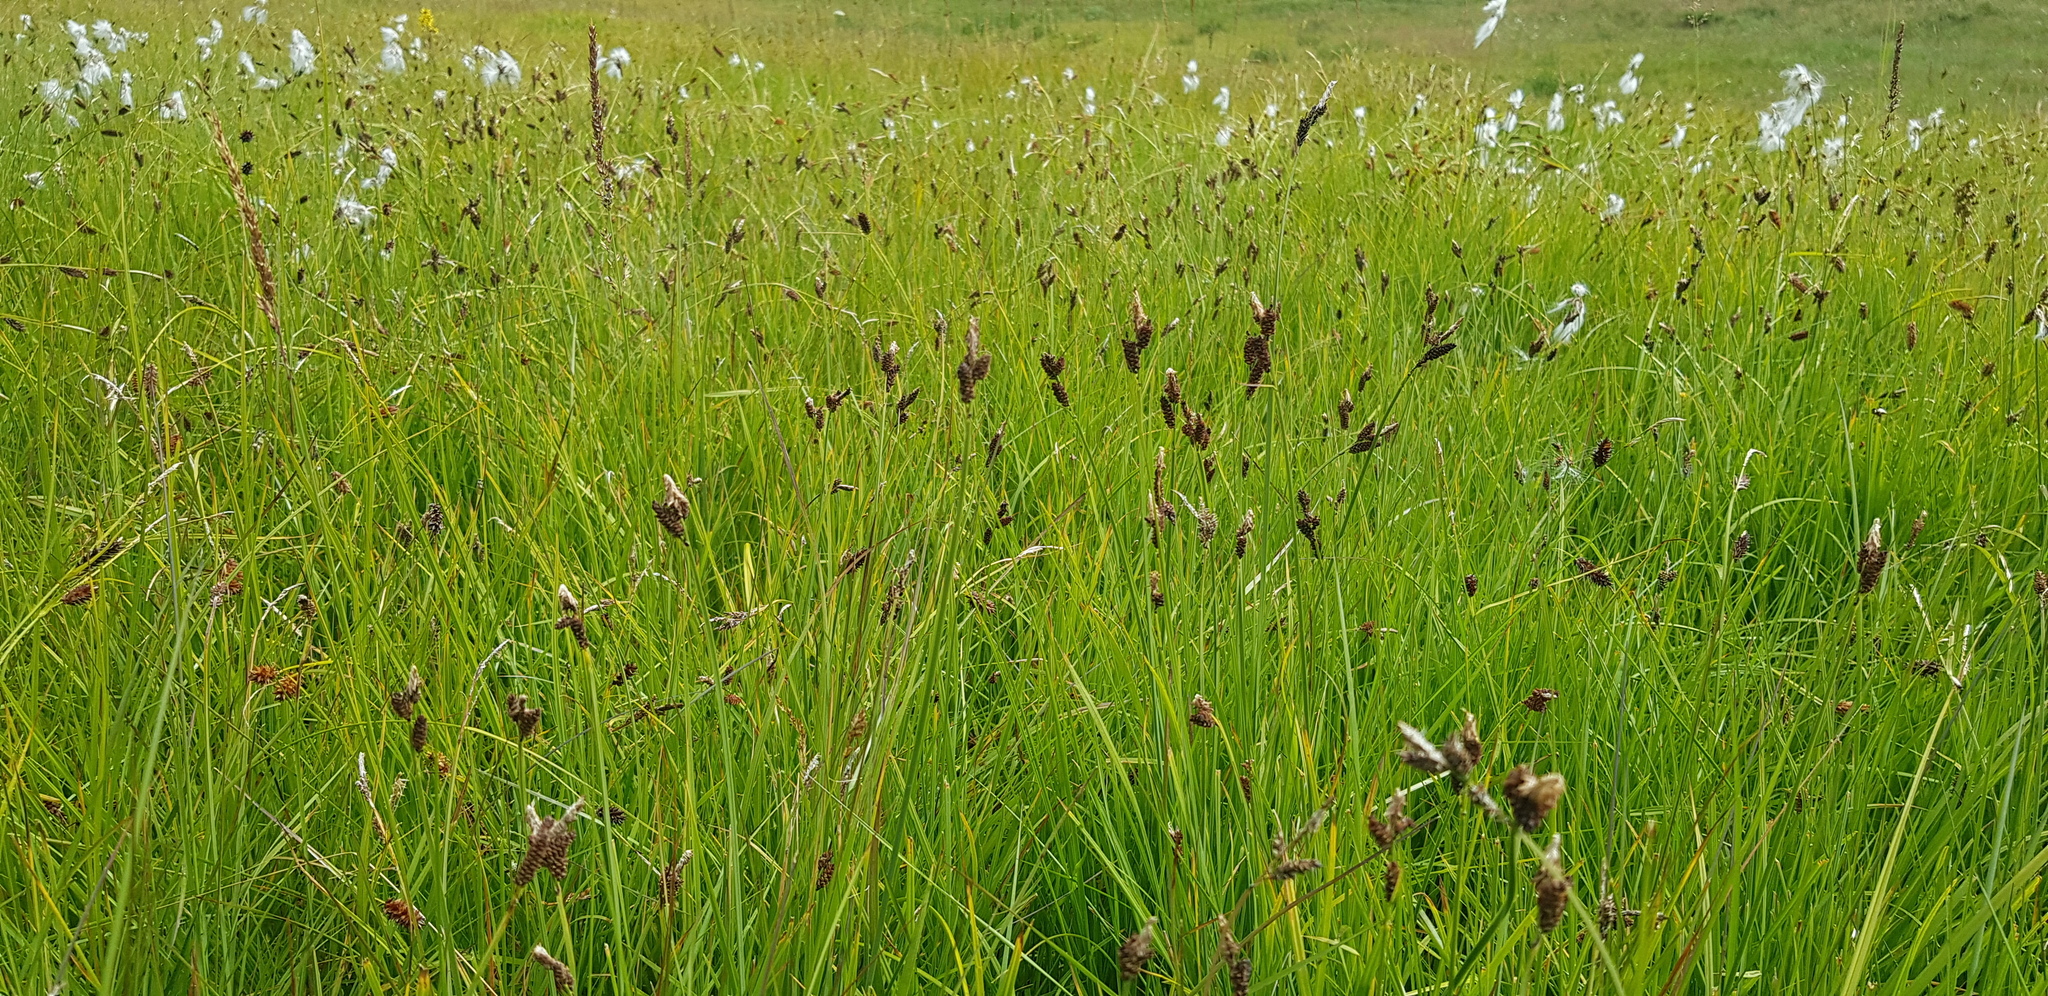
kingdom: Plantae
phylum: Tracheophyta
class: Liliopsida
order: Poales
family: Cyperaceae
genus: Eleocharis
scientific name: Eleocharis palustris
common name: Common spike-rush
